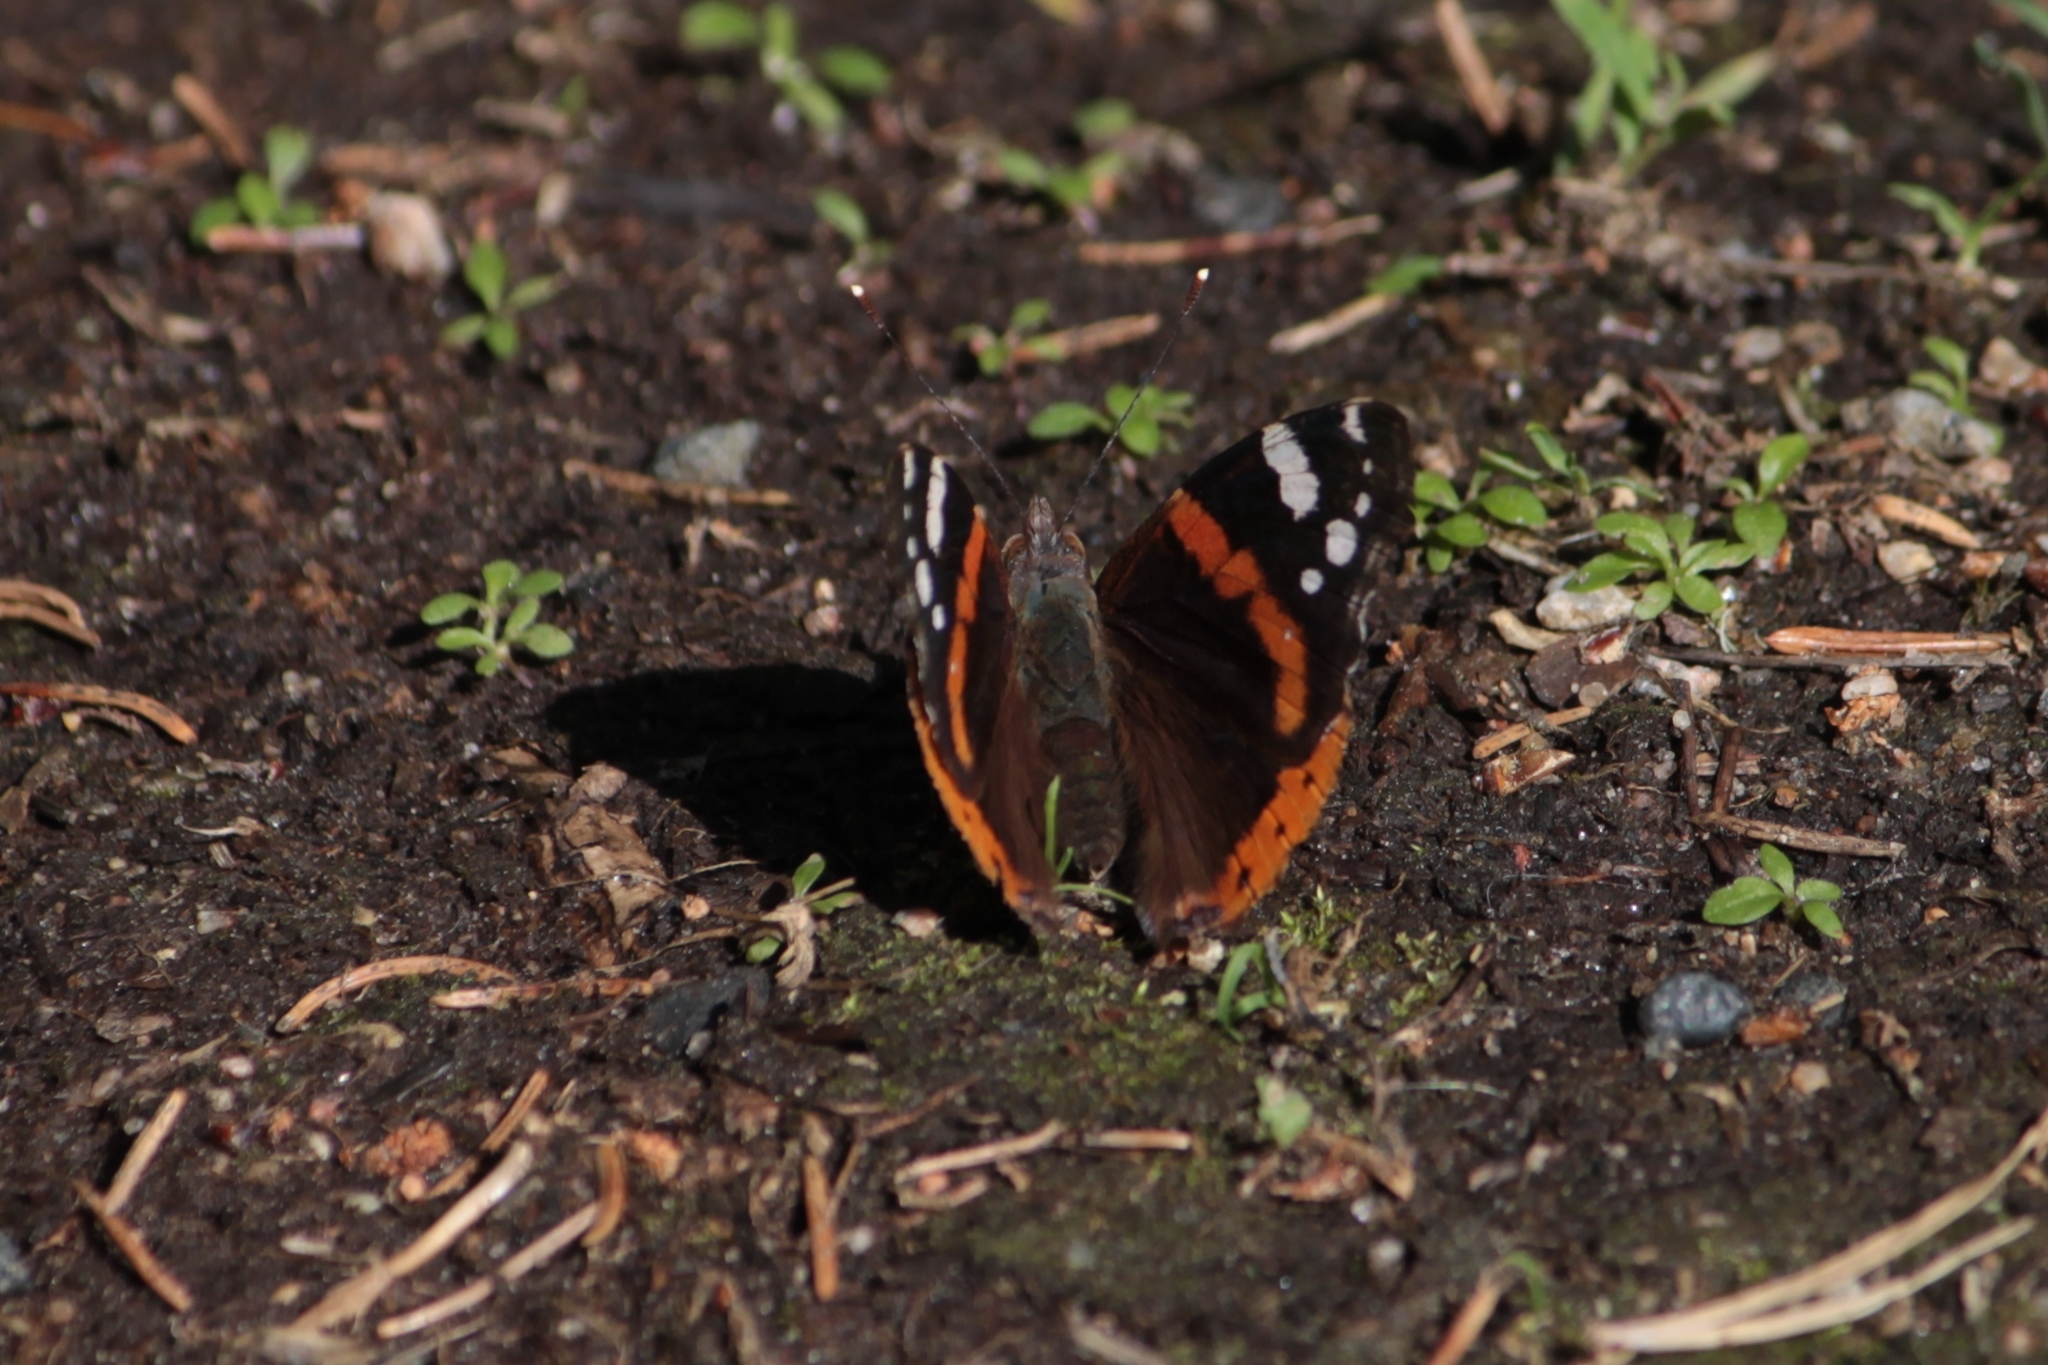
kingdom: Animalia
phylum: Arthropoda
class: Insecta
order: Lepidoptera
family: Nymphalidae
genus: Vanessa
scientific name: Vanessa atalanta
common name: Red admiral
